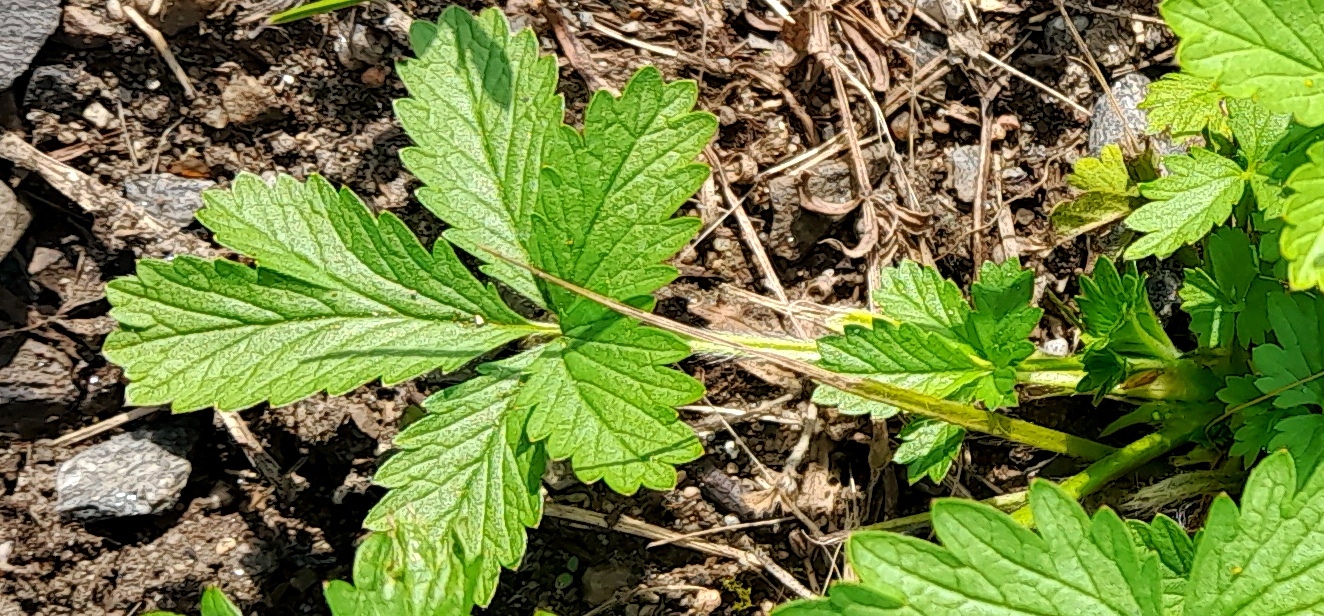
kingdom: Plantae
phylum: Tracheophyta
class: Magnoliopsida
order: Rosales
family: Rosaceae
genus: Potentilla
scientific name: Potentilla intermedia
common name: Downy cinquefoil
